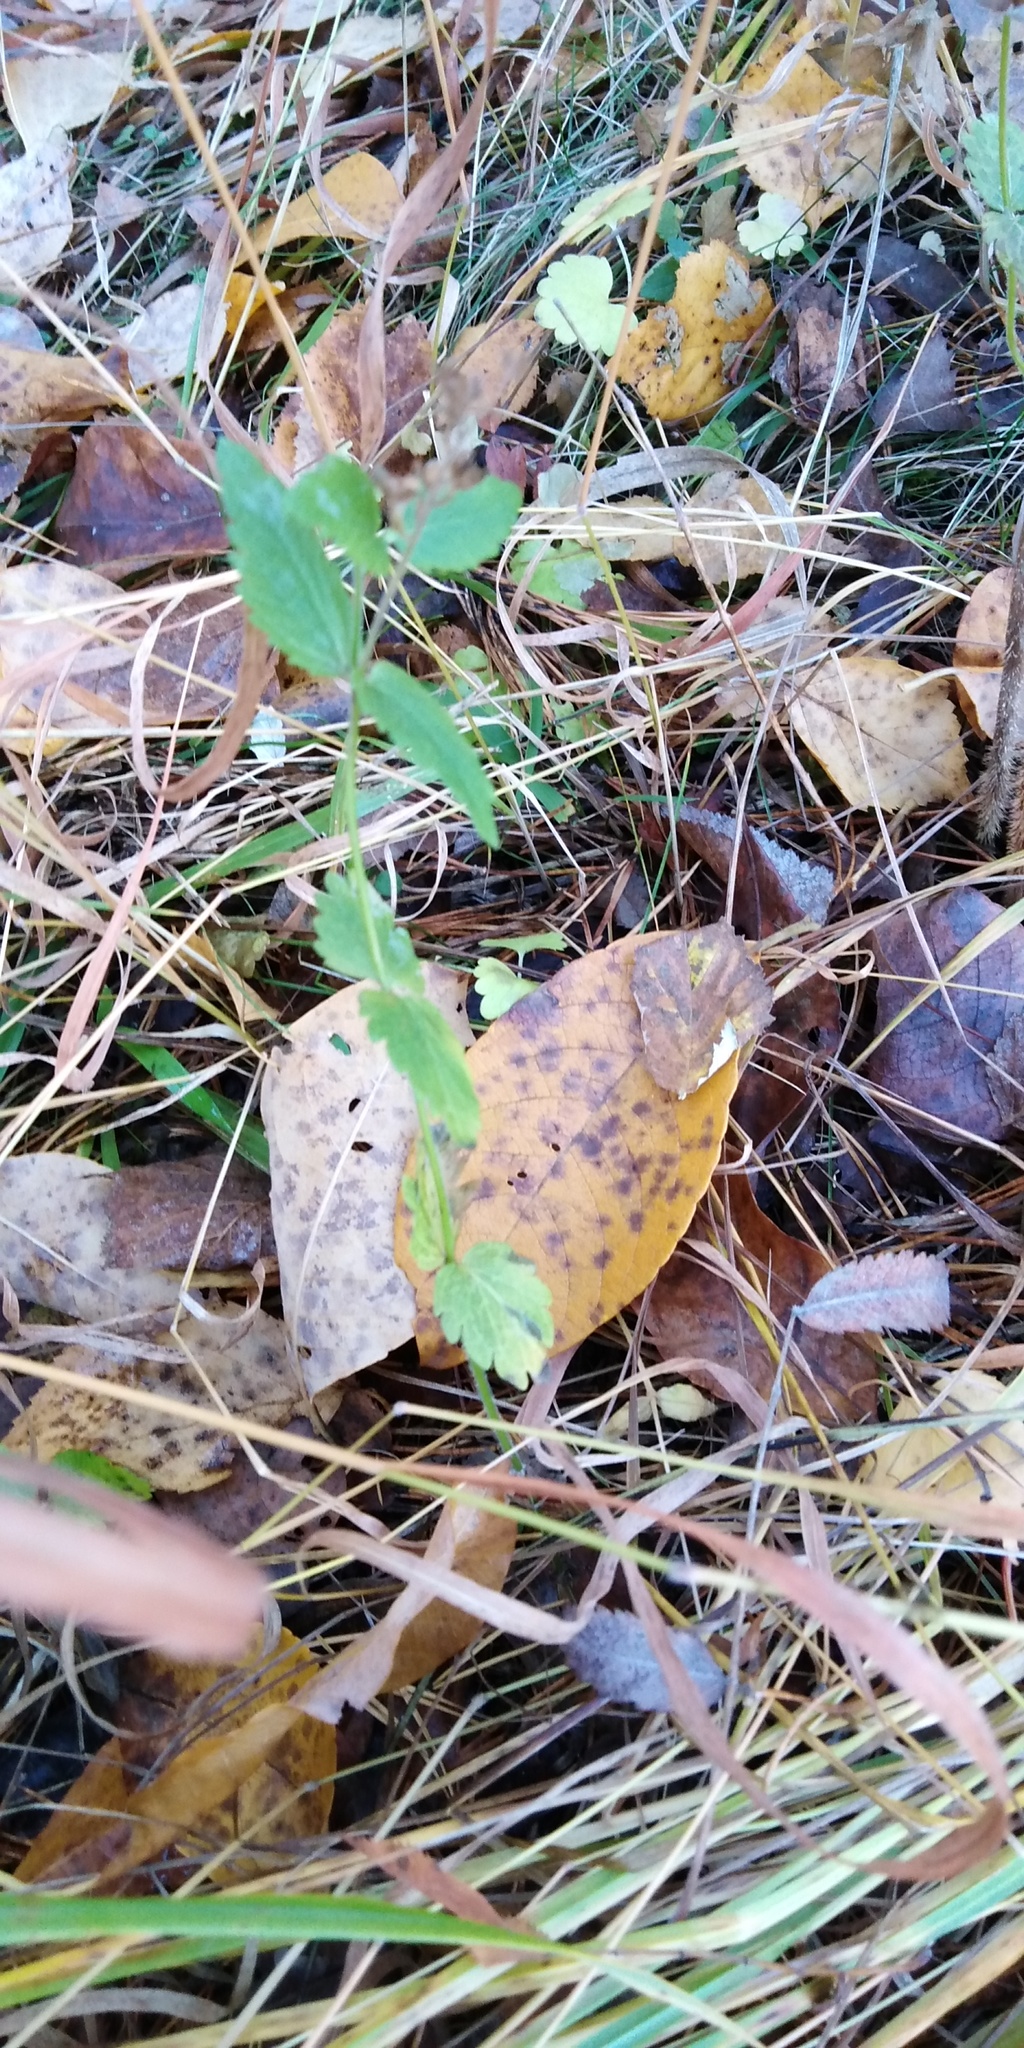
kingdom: Plantae
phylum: Tracheophyta
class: Magnoliopsida
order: Lamiales
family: Plantaginaceae
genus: Veronica
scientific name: Veronica chamaedrys
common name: Germander speedwell
